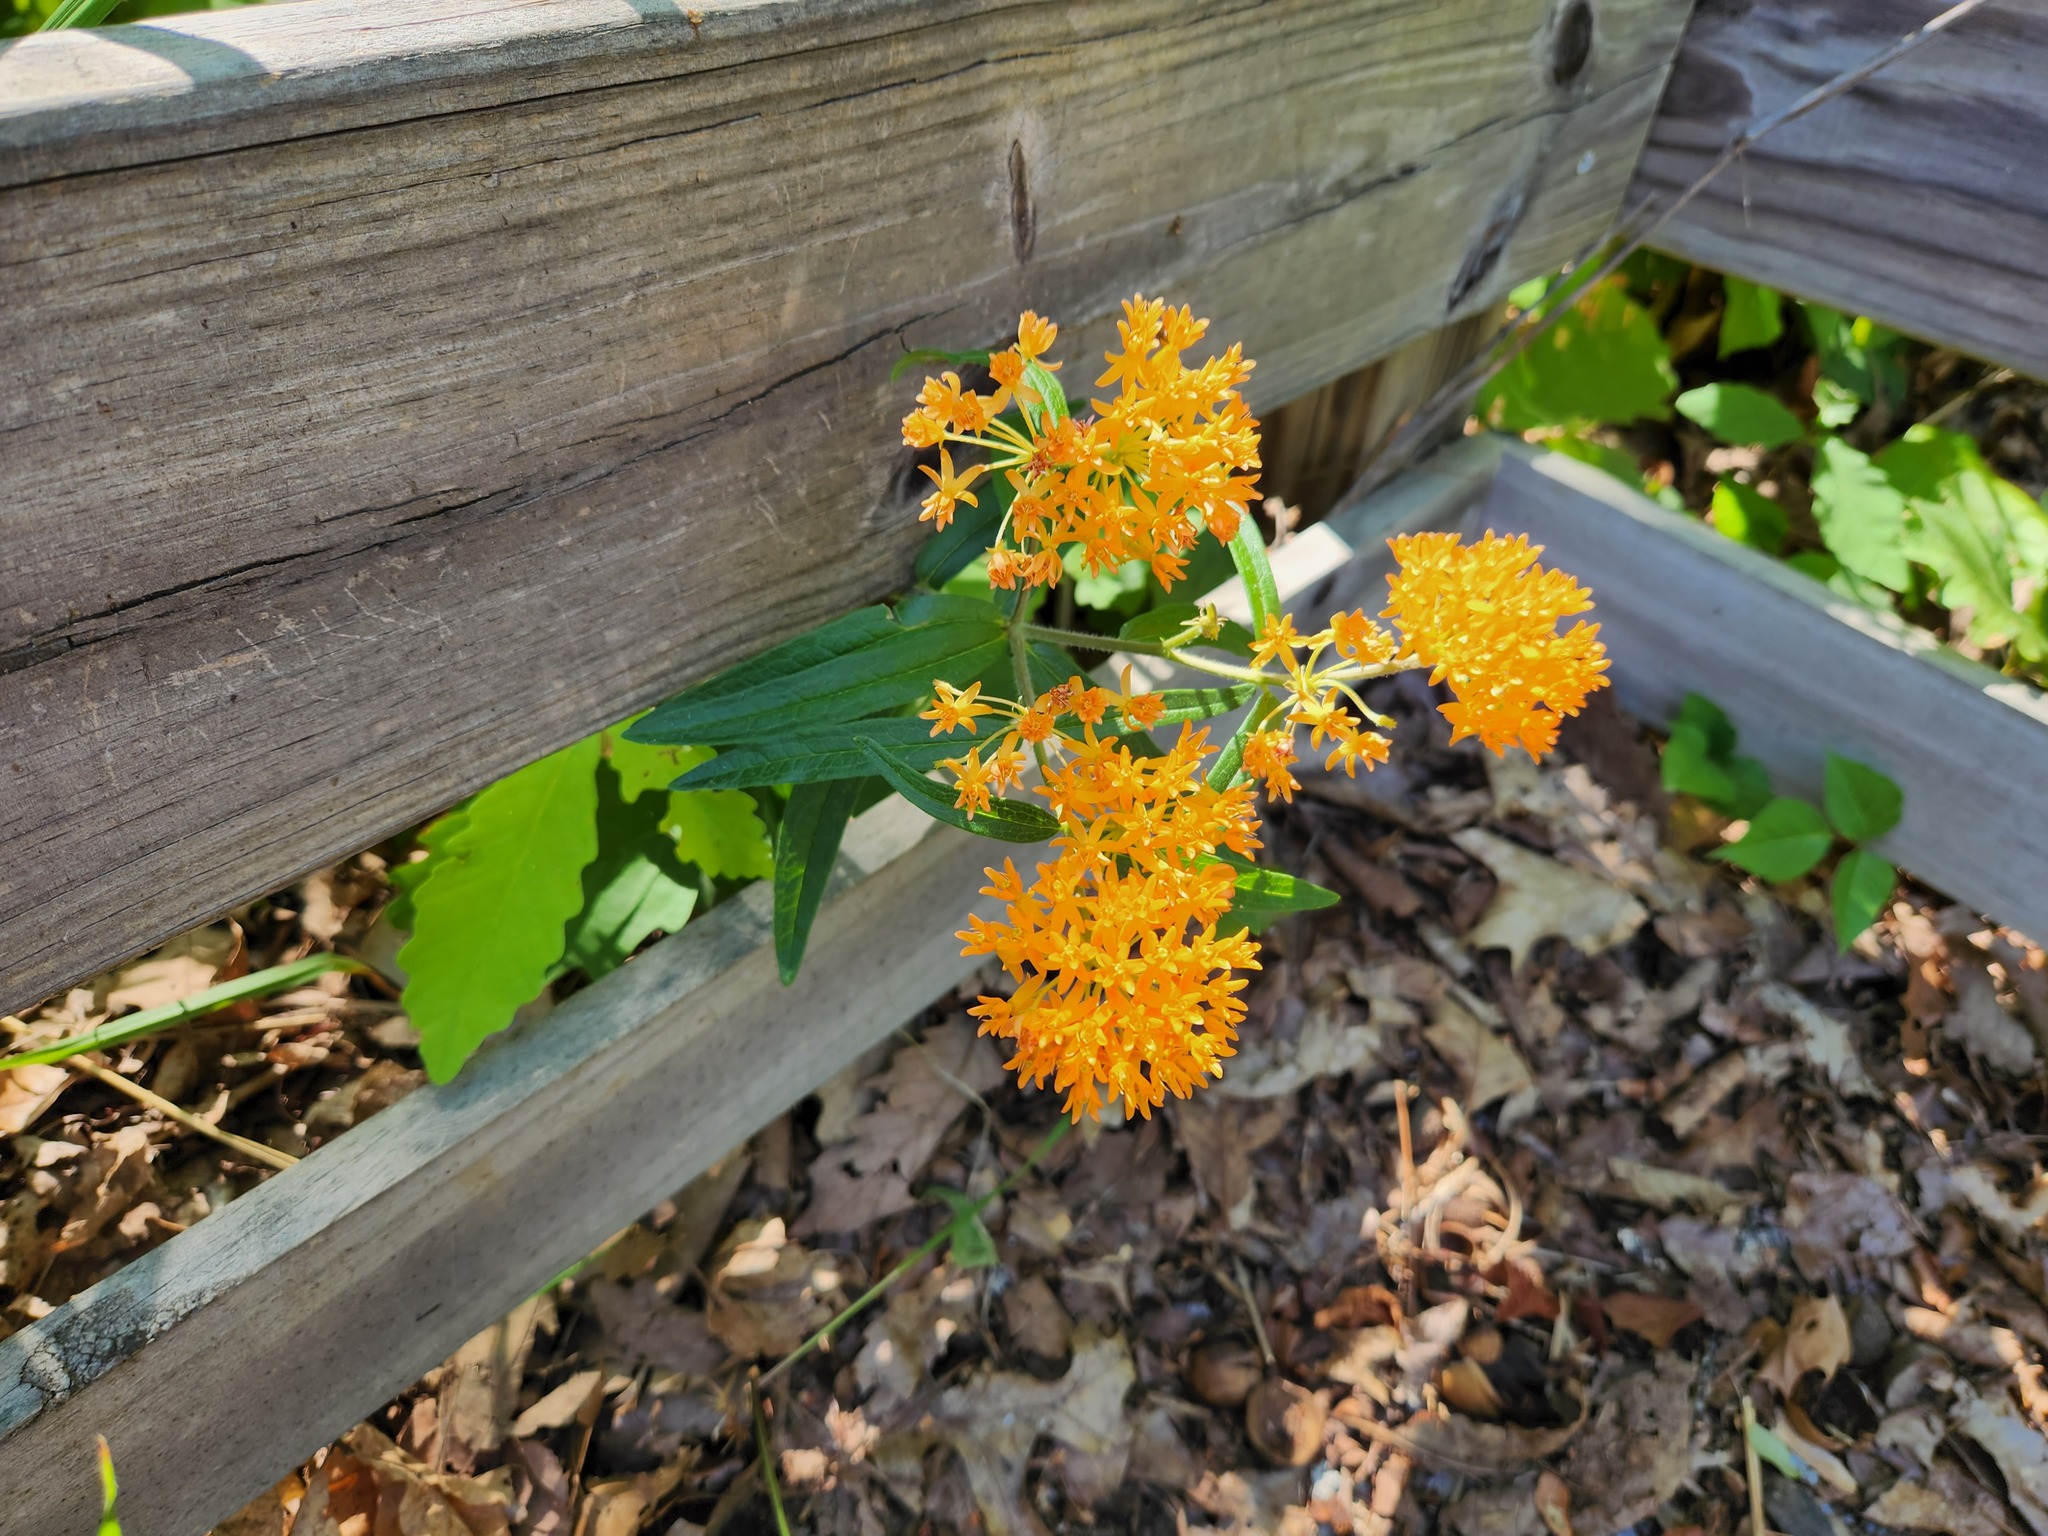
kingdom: Plantae
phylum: Tracheophyta
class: Magnoliopsida
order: Gentianales
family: Apocynaceae
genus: Asclepias
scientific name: Asclepias tuberosa
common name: Butterfly milkweed
